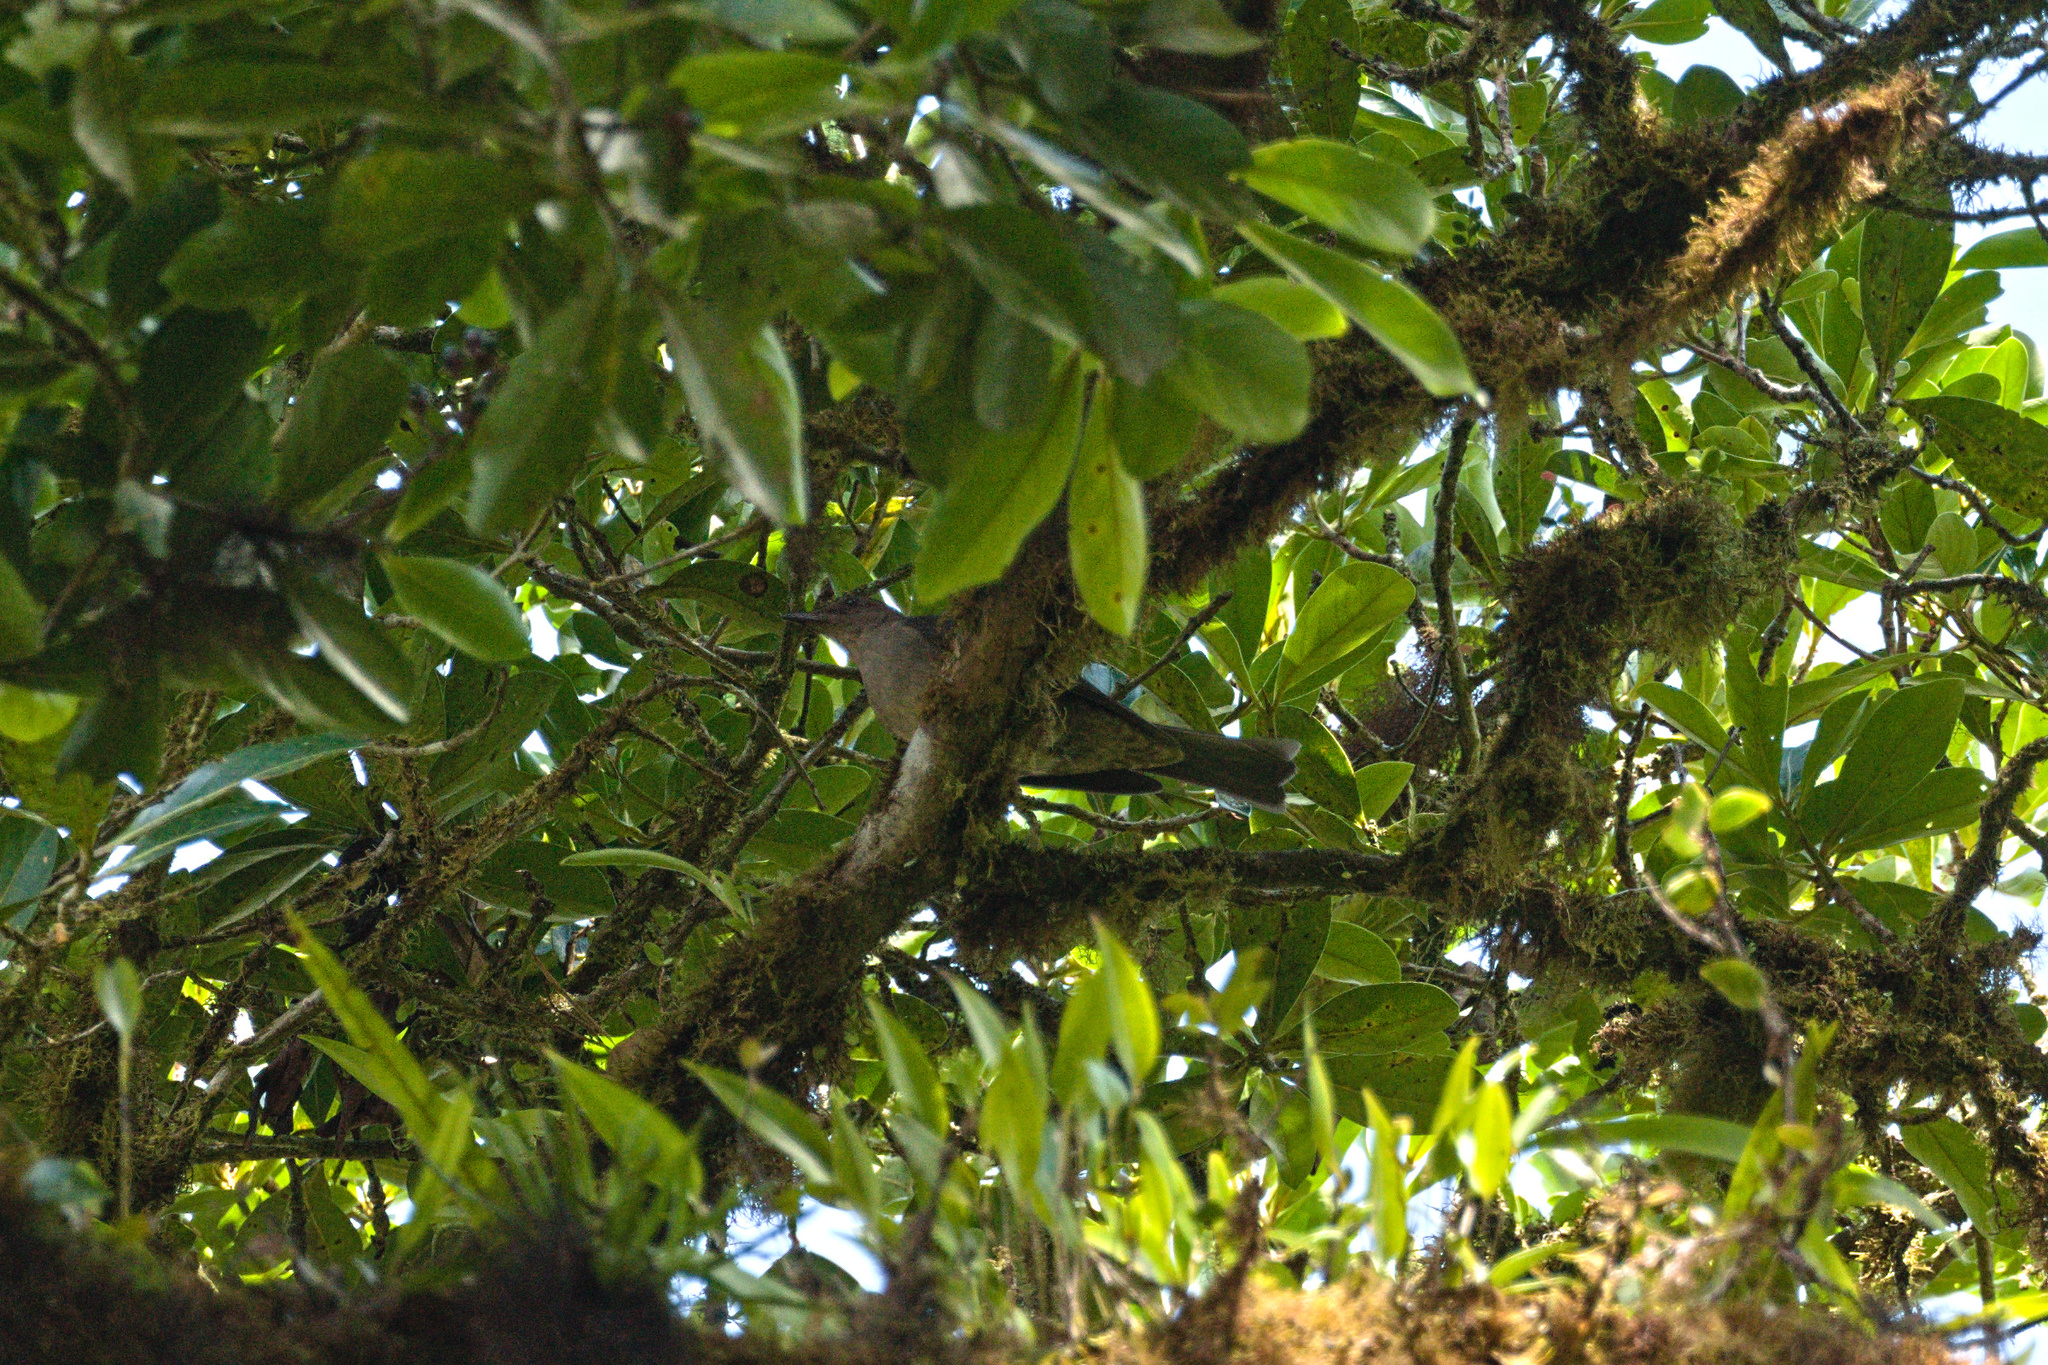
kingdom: Animalia
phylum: Chordata
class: Aves
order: Passeriformes
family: Turdidae
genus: Turdus
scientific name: Turdus plebejus
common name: Mountain thrush
